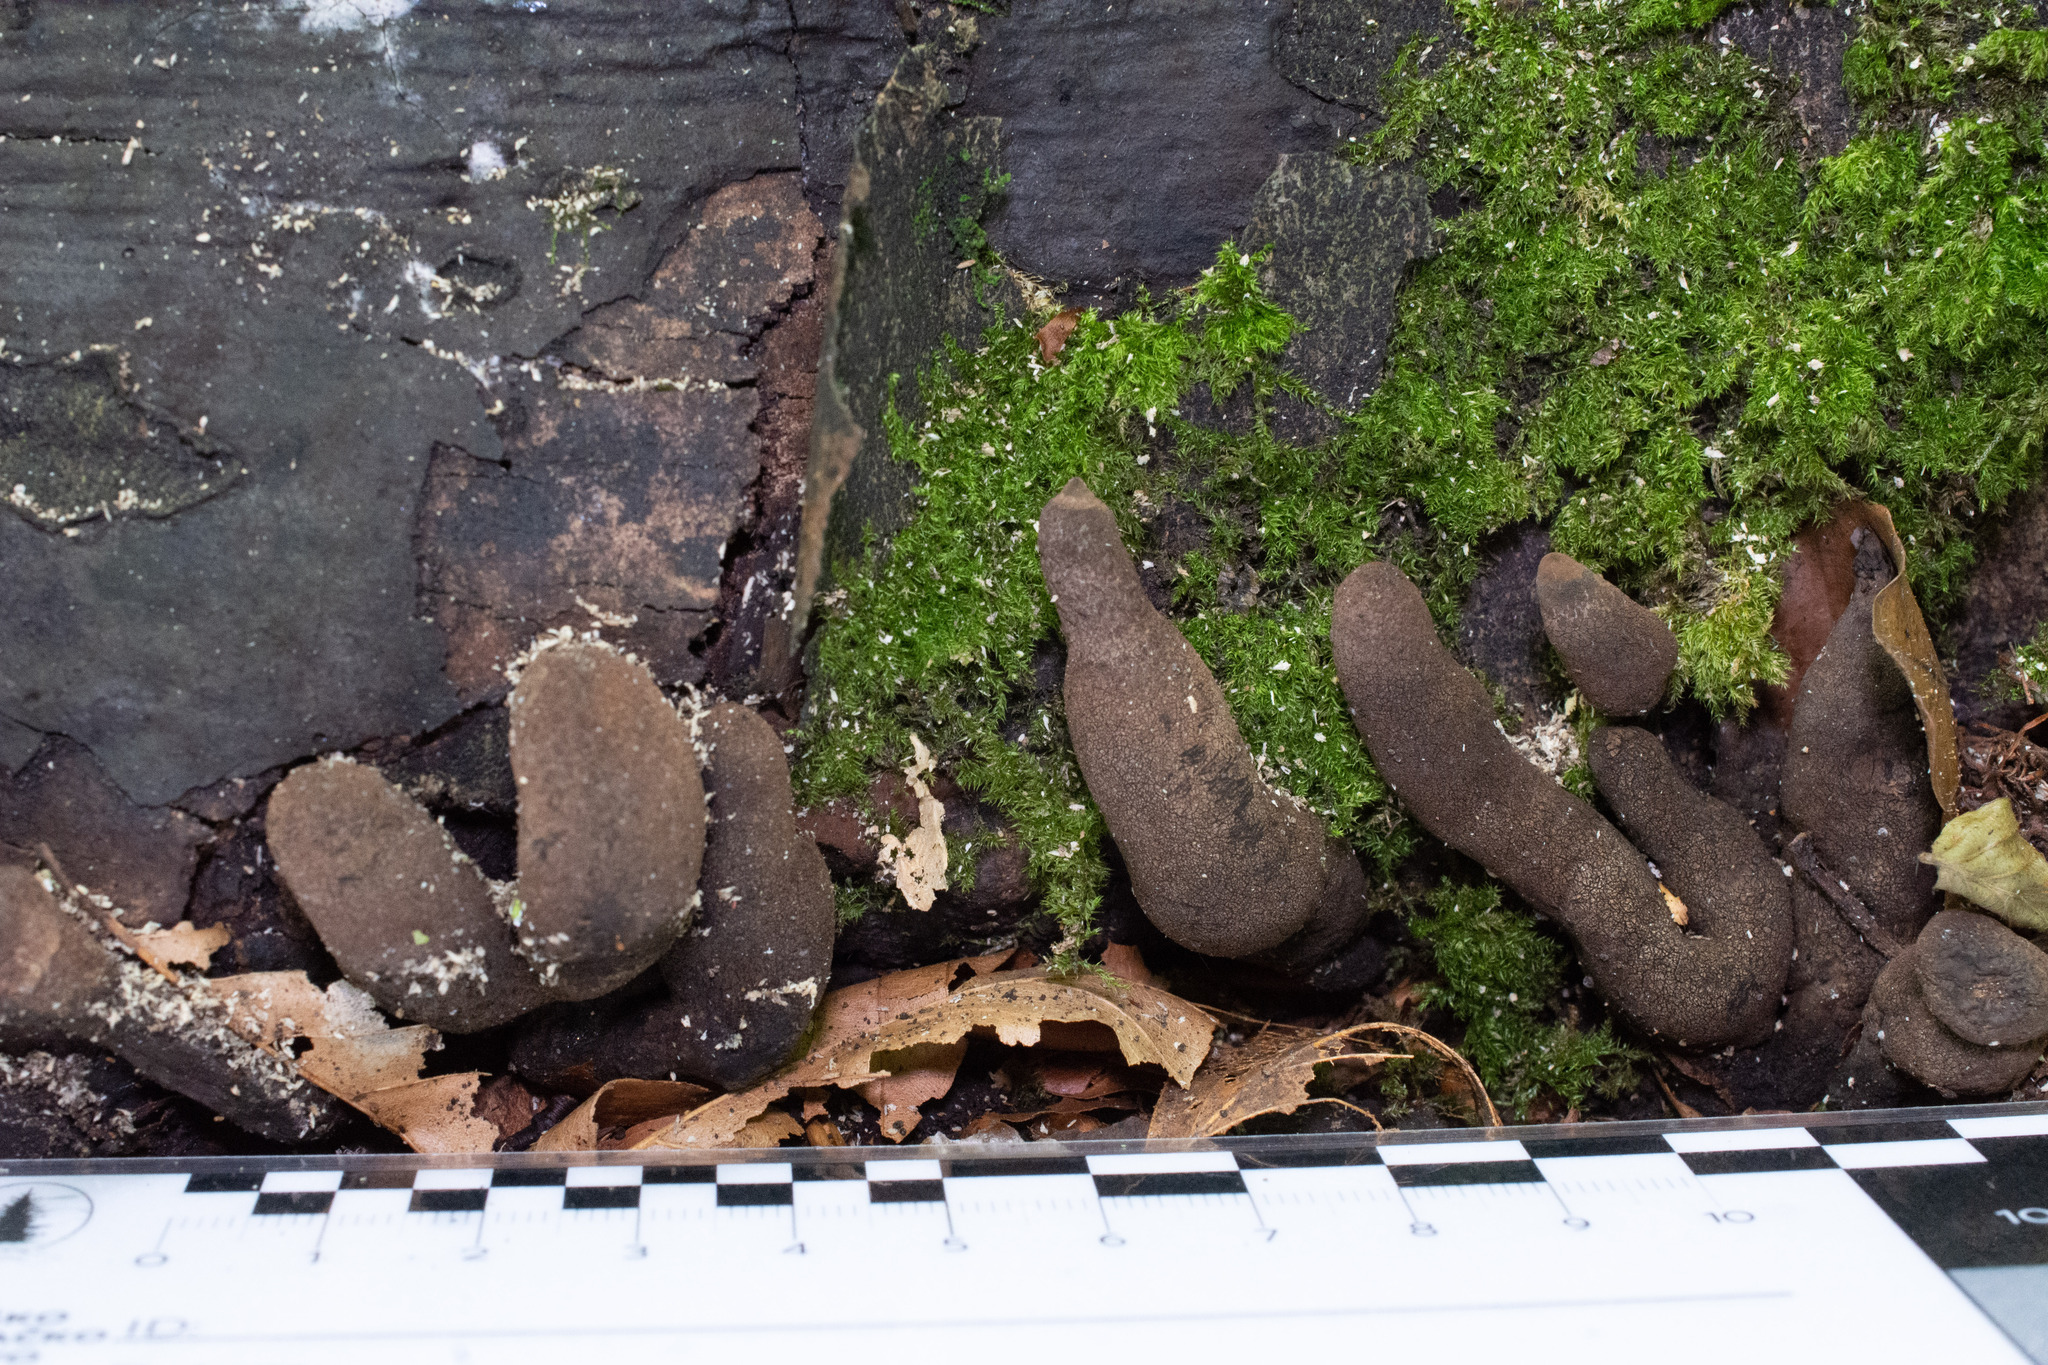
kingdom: Fungi
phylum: Ascomycota
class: Sordariomycetes
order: Xylariales
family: Xylariaceae
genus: Xylaria
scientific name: Xylaria polymorpha
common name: Dead man's fingers
